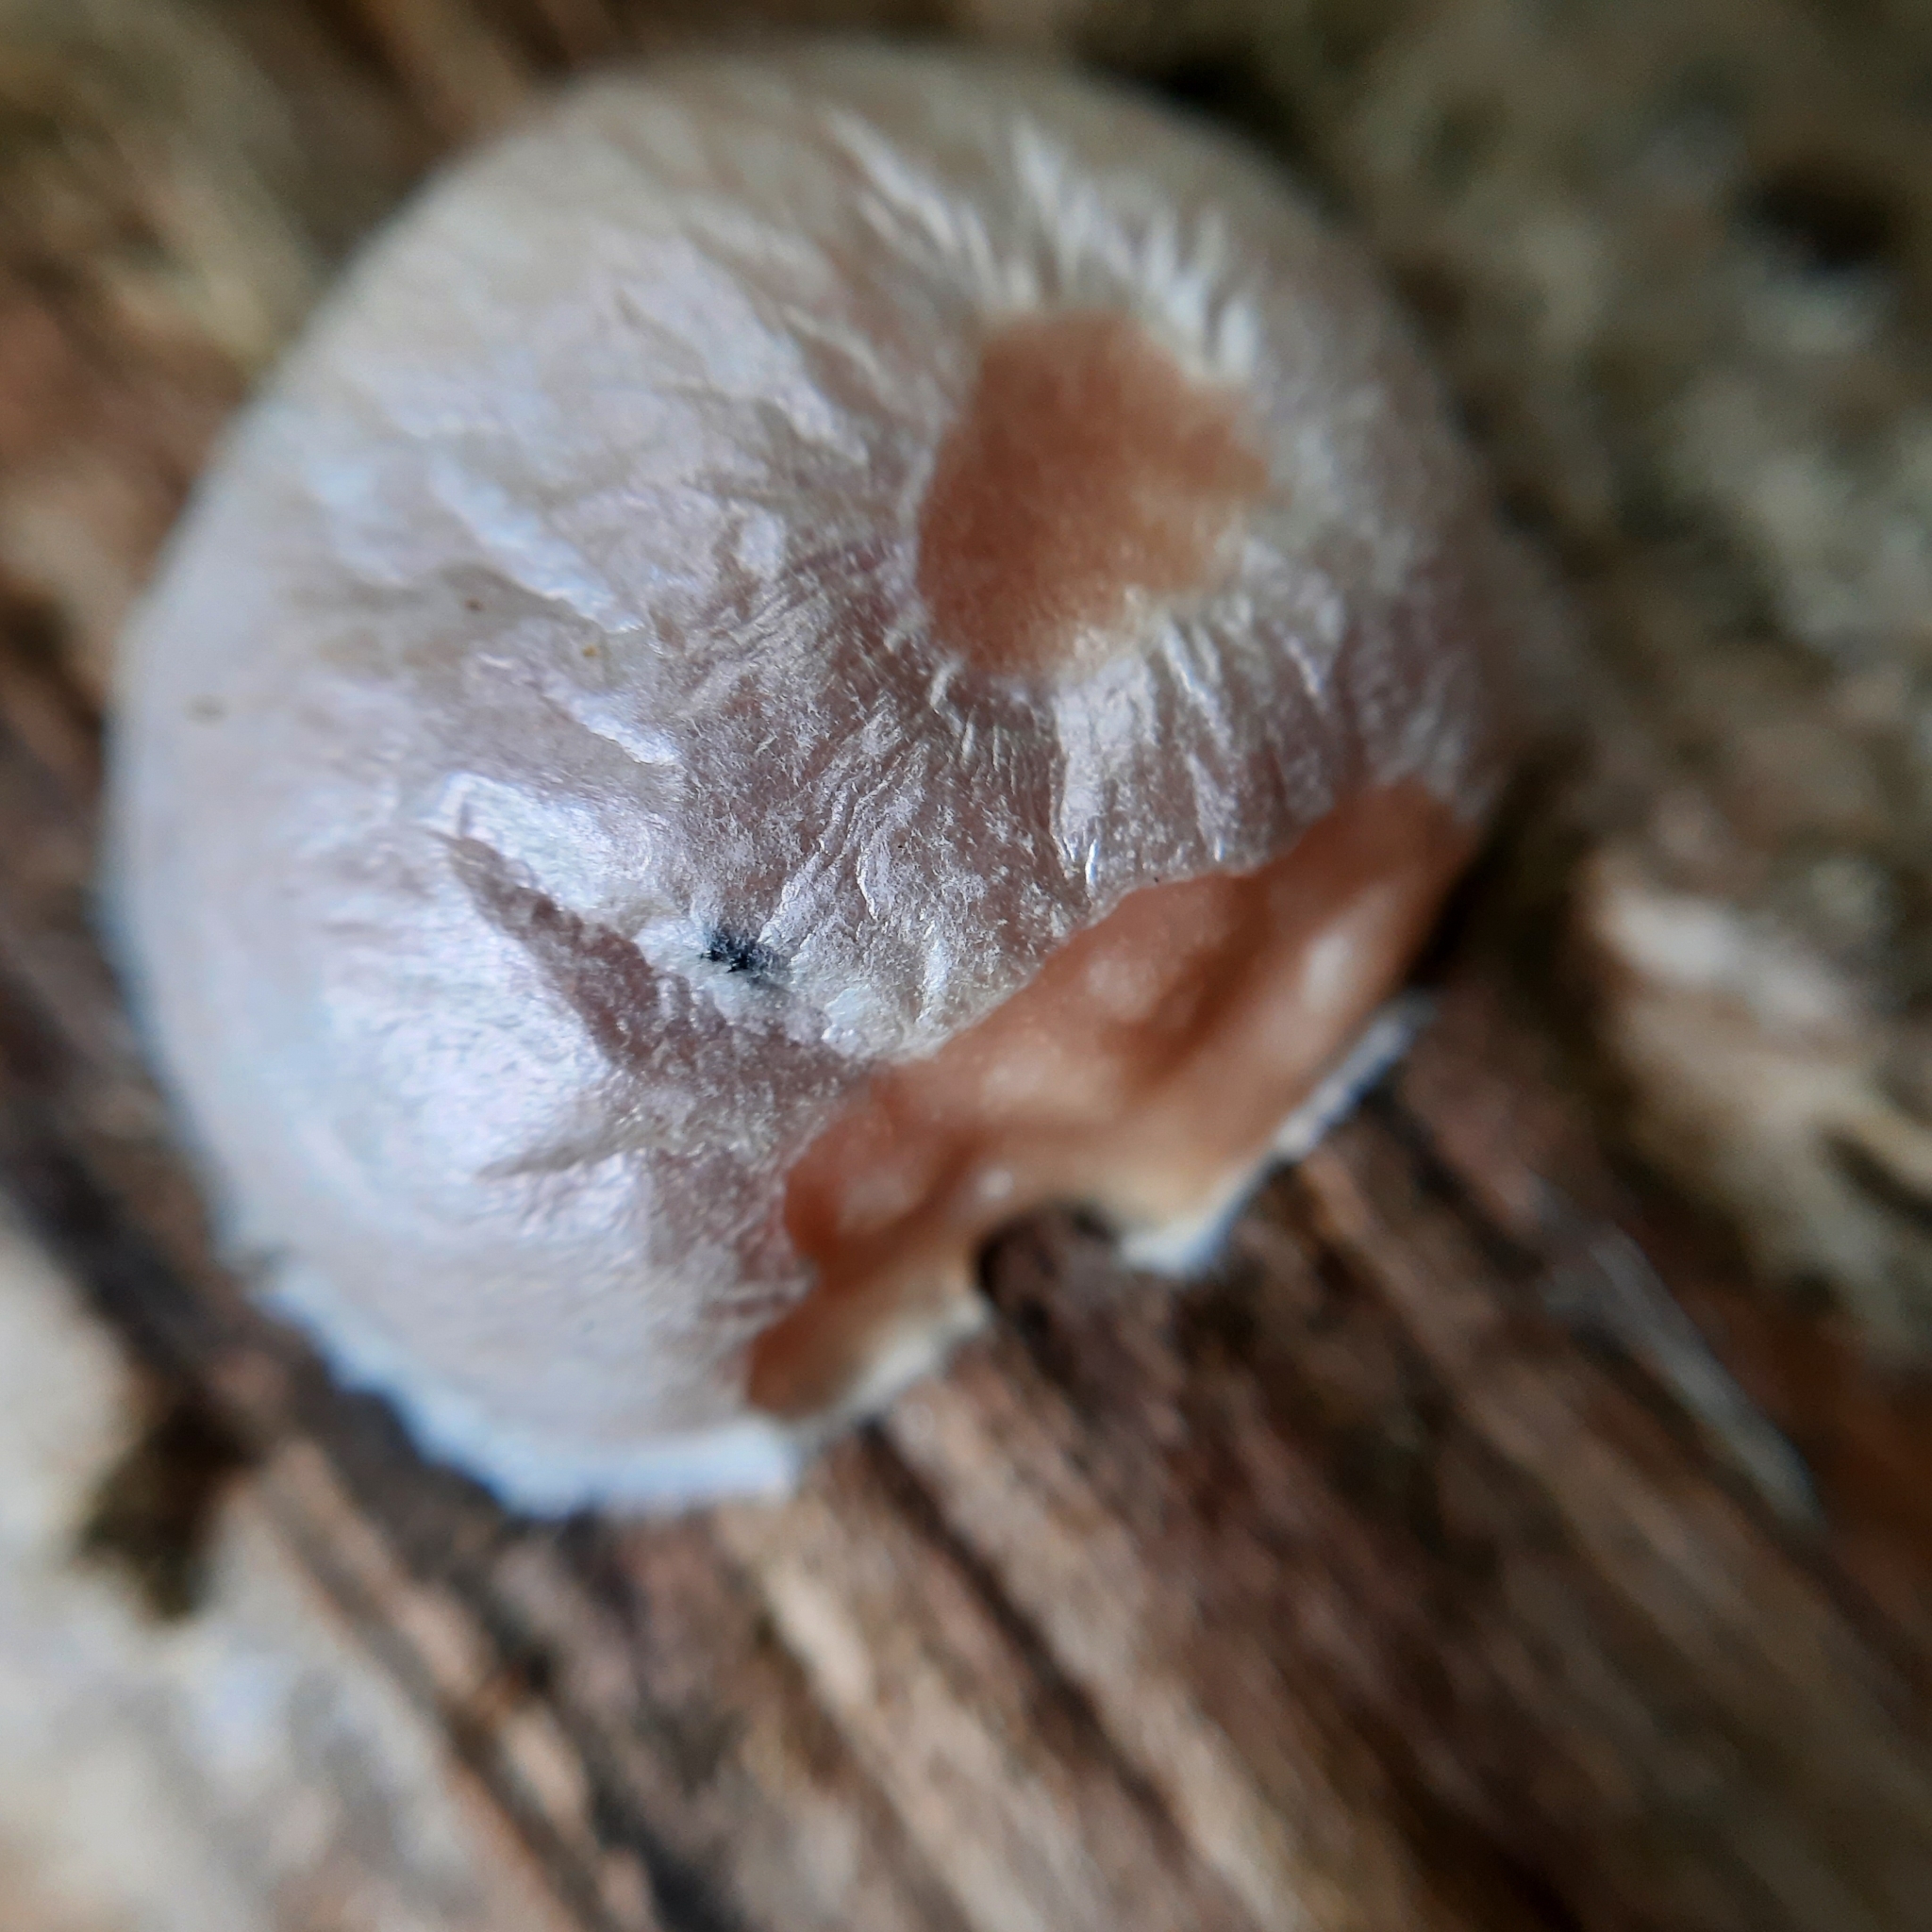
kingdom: Protozoa
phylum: Mycetozoa
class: Myxomycetes
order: Cribrariales
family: Tubiferaceae
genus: Reticularia
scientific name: Reticularia lycoperdon
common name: False puffball
